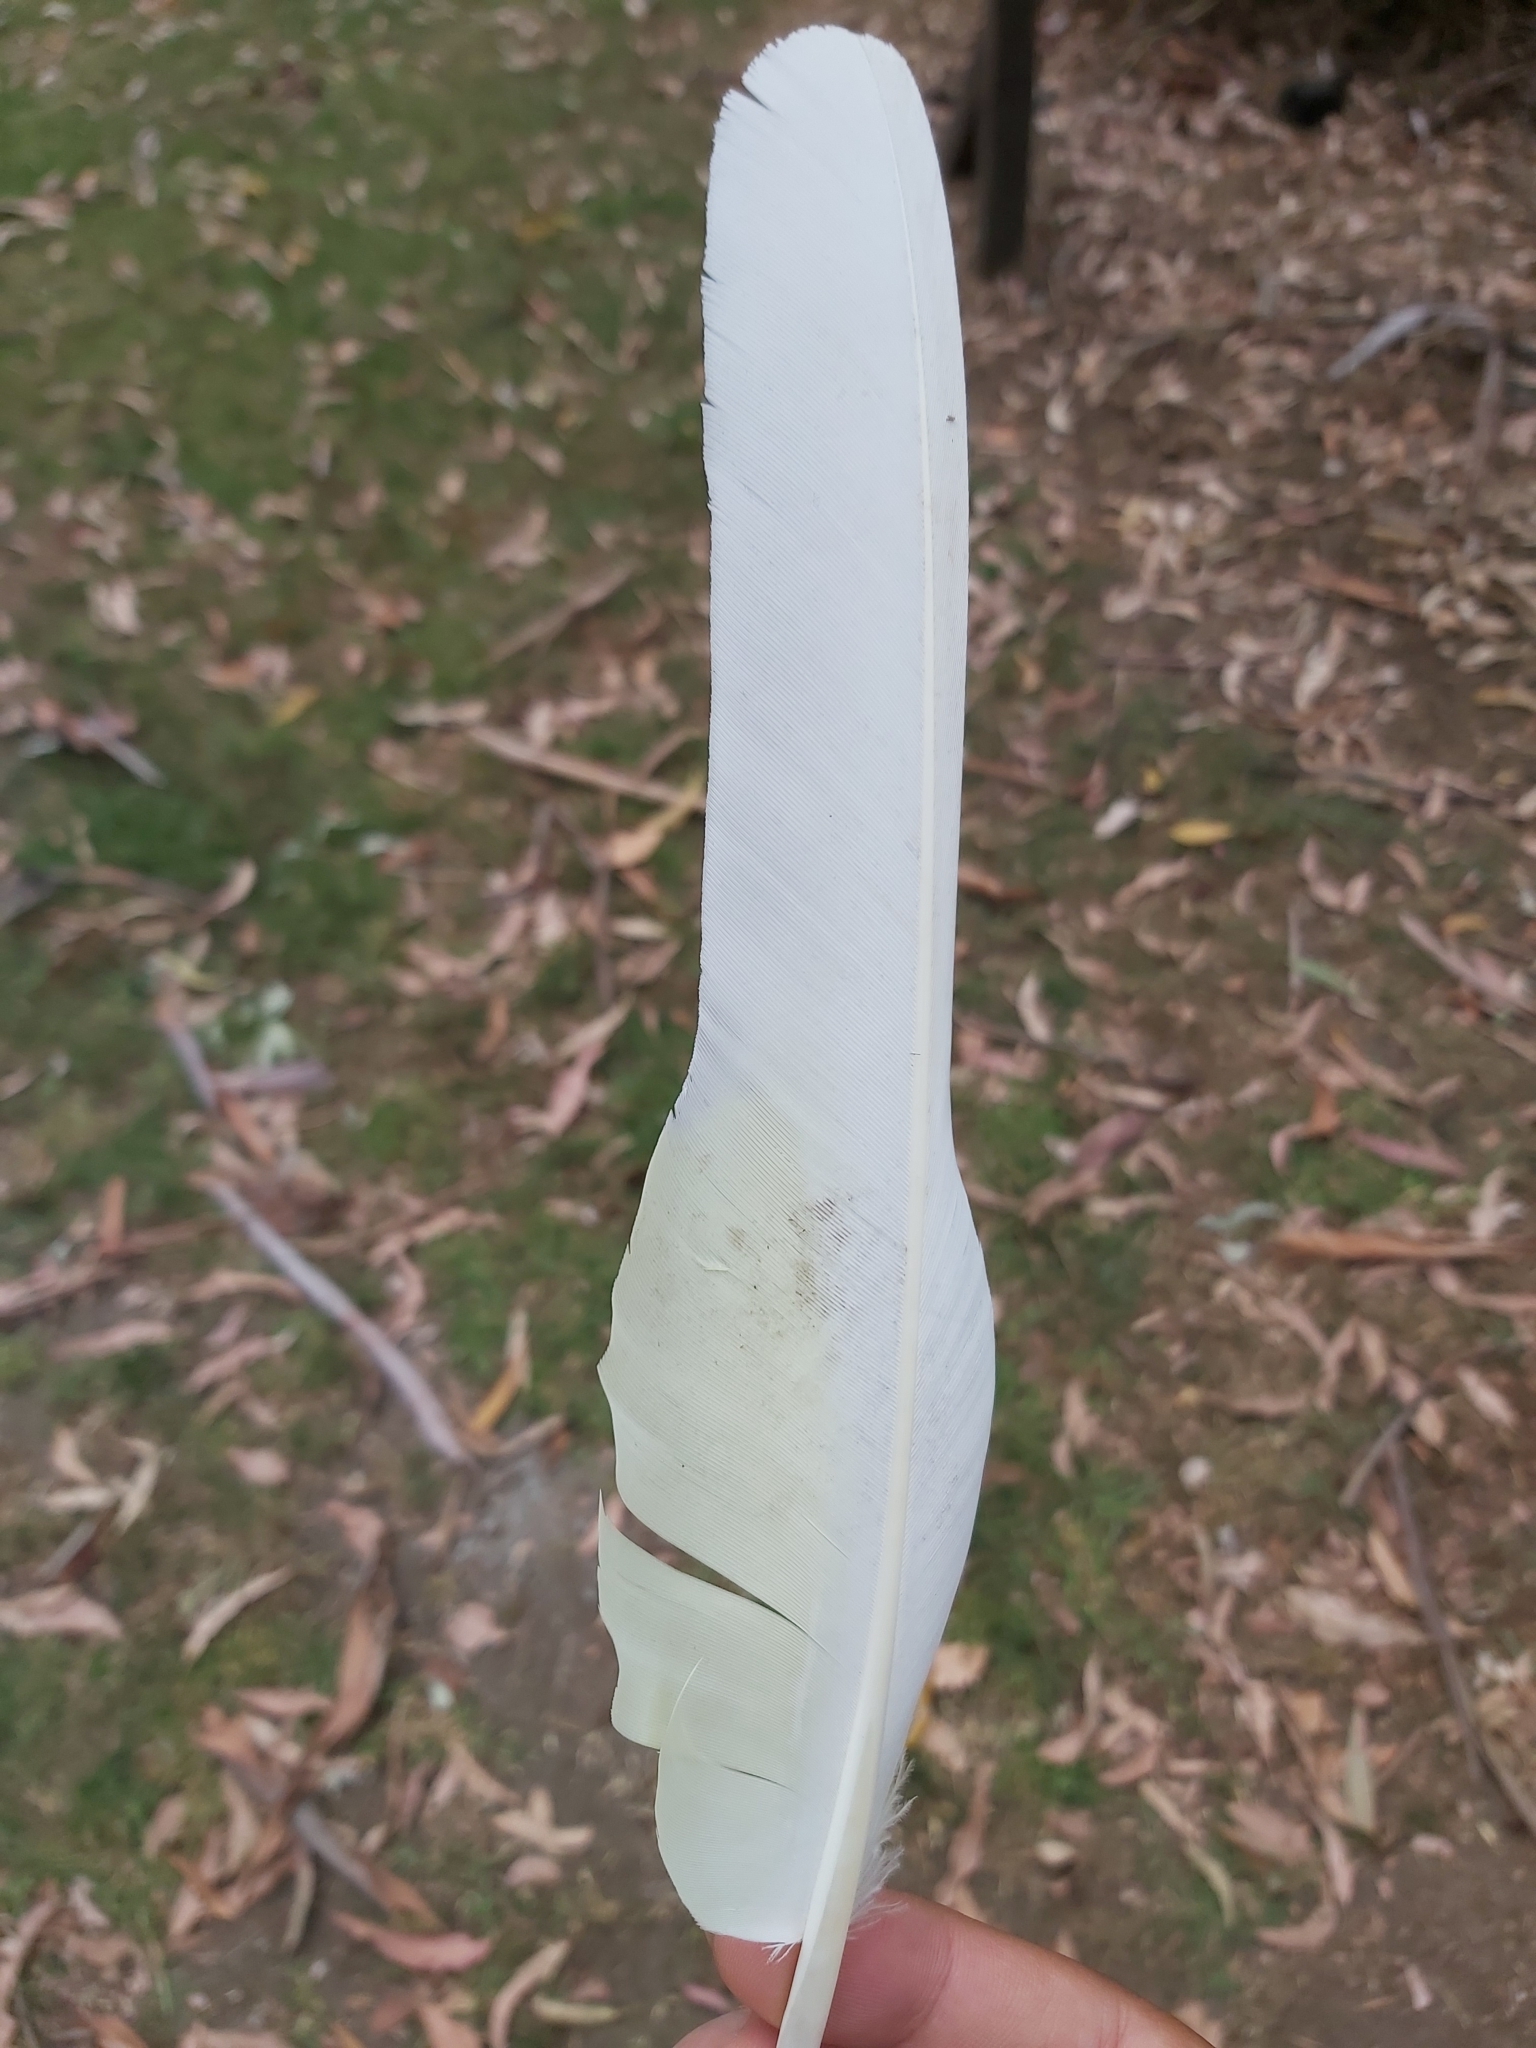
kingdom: Animalia
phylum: Chordata
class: Aves
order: Psittaciformes
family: Psittacidae
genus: Cacatua
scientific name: Cacatua galerita
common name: Sulphur-crested cockatoo
